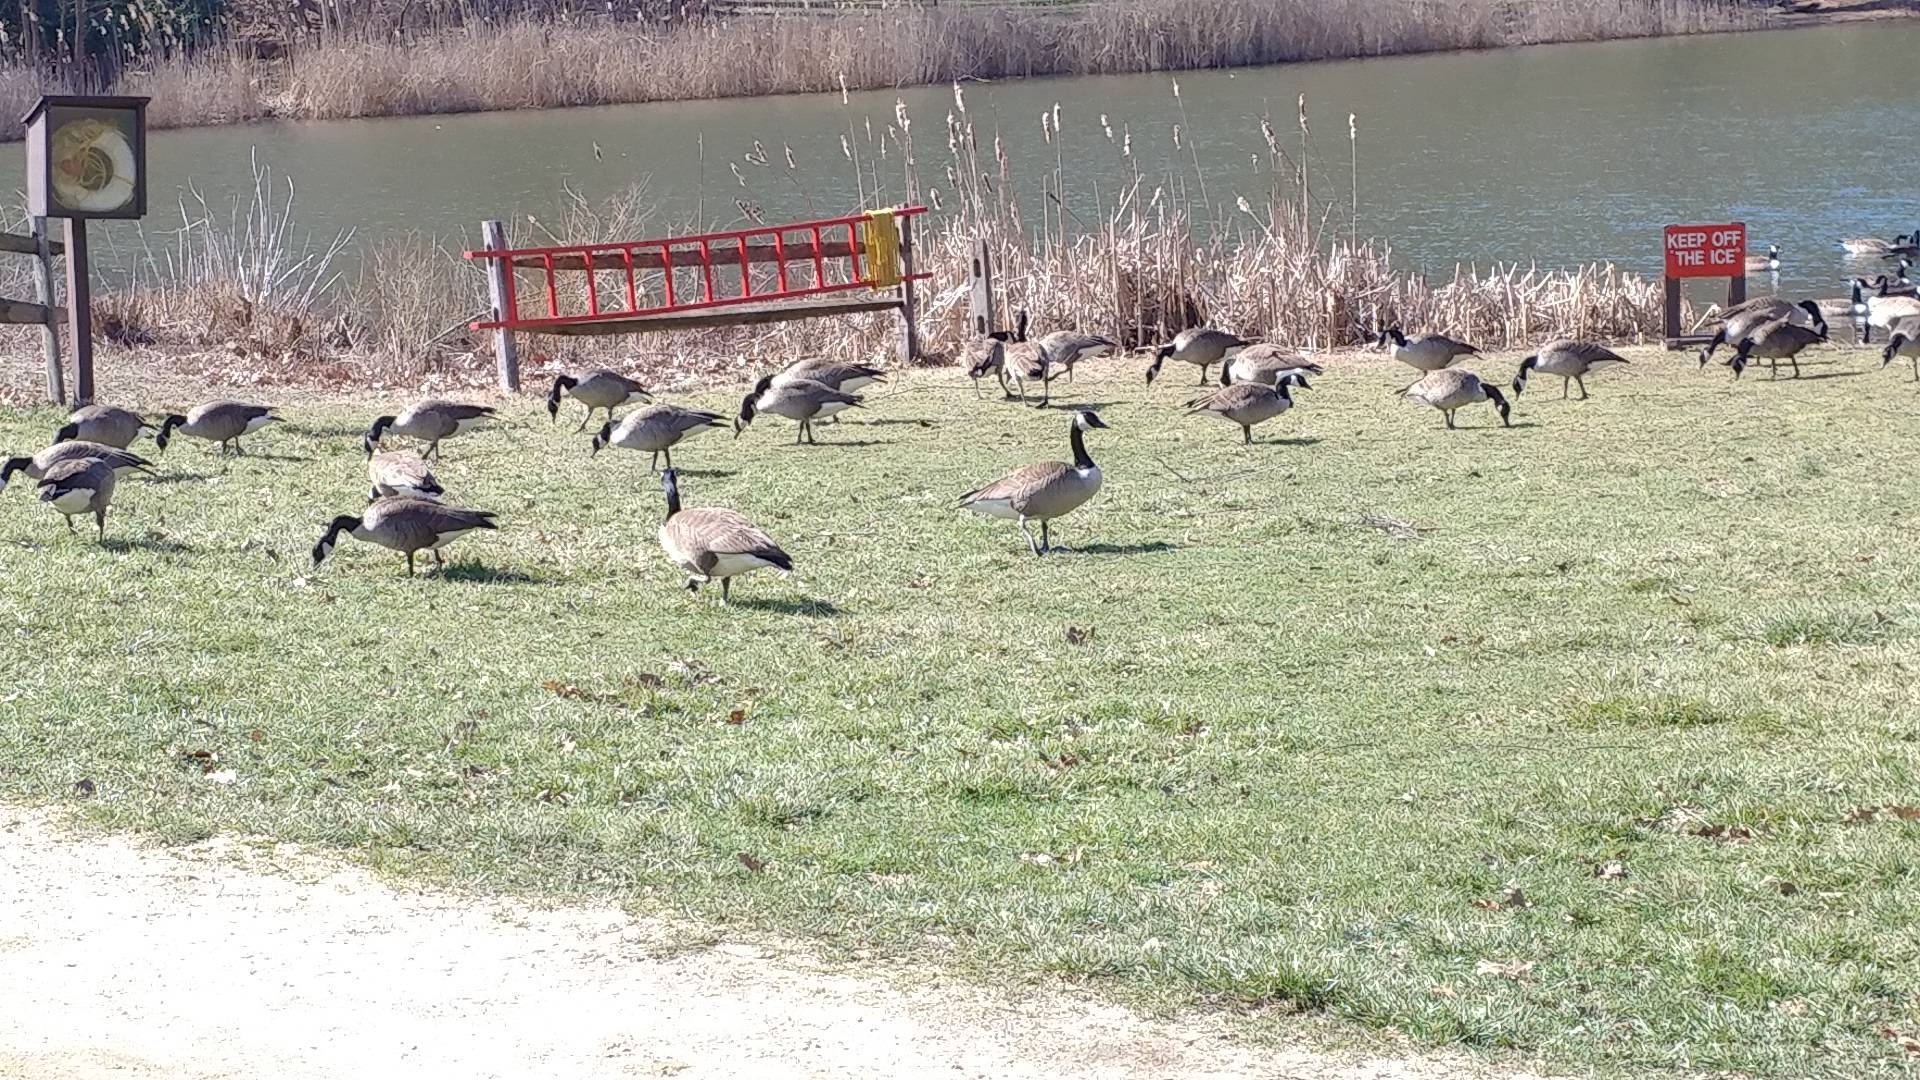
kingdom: Animalia
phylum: Chordata
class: Aves
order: Anseriformes
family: Anatidae
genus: Branta
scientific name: Branta canadensis
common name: Canada goose
